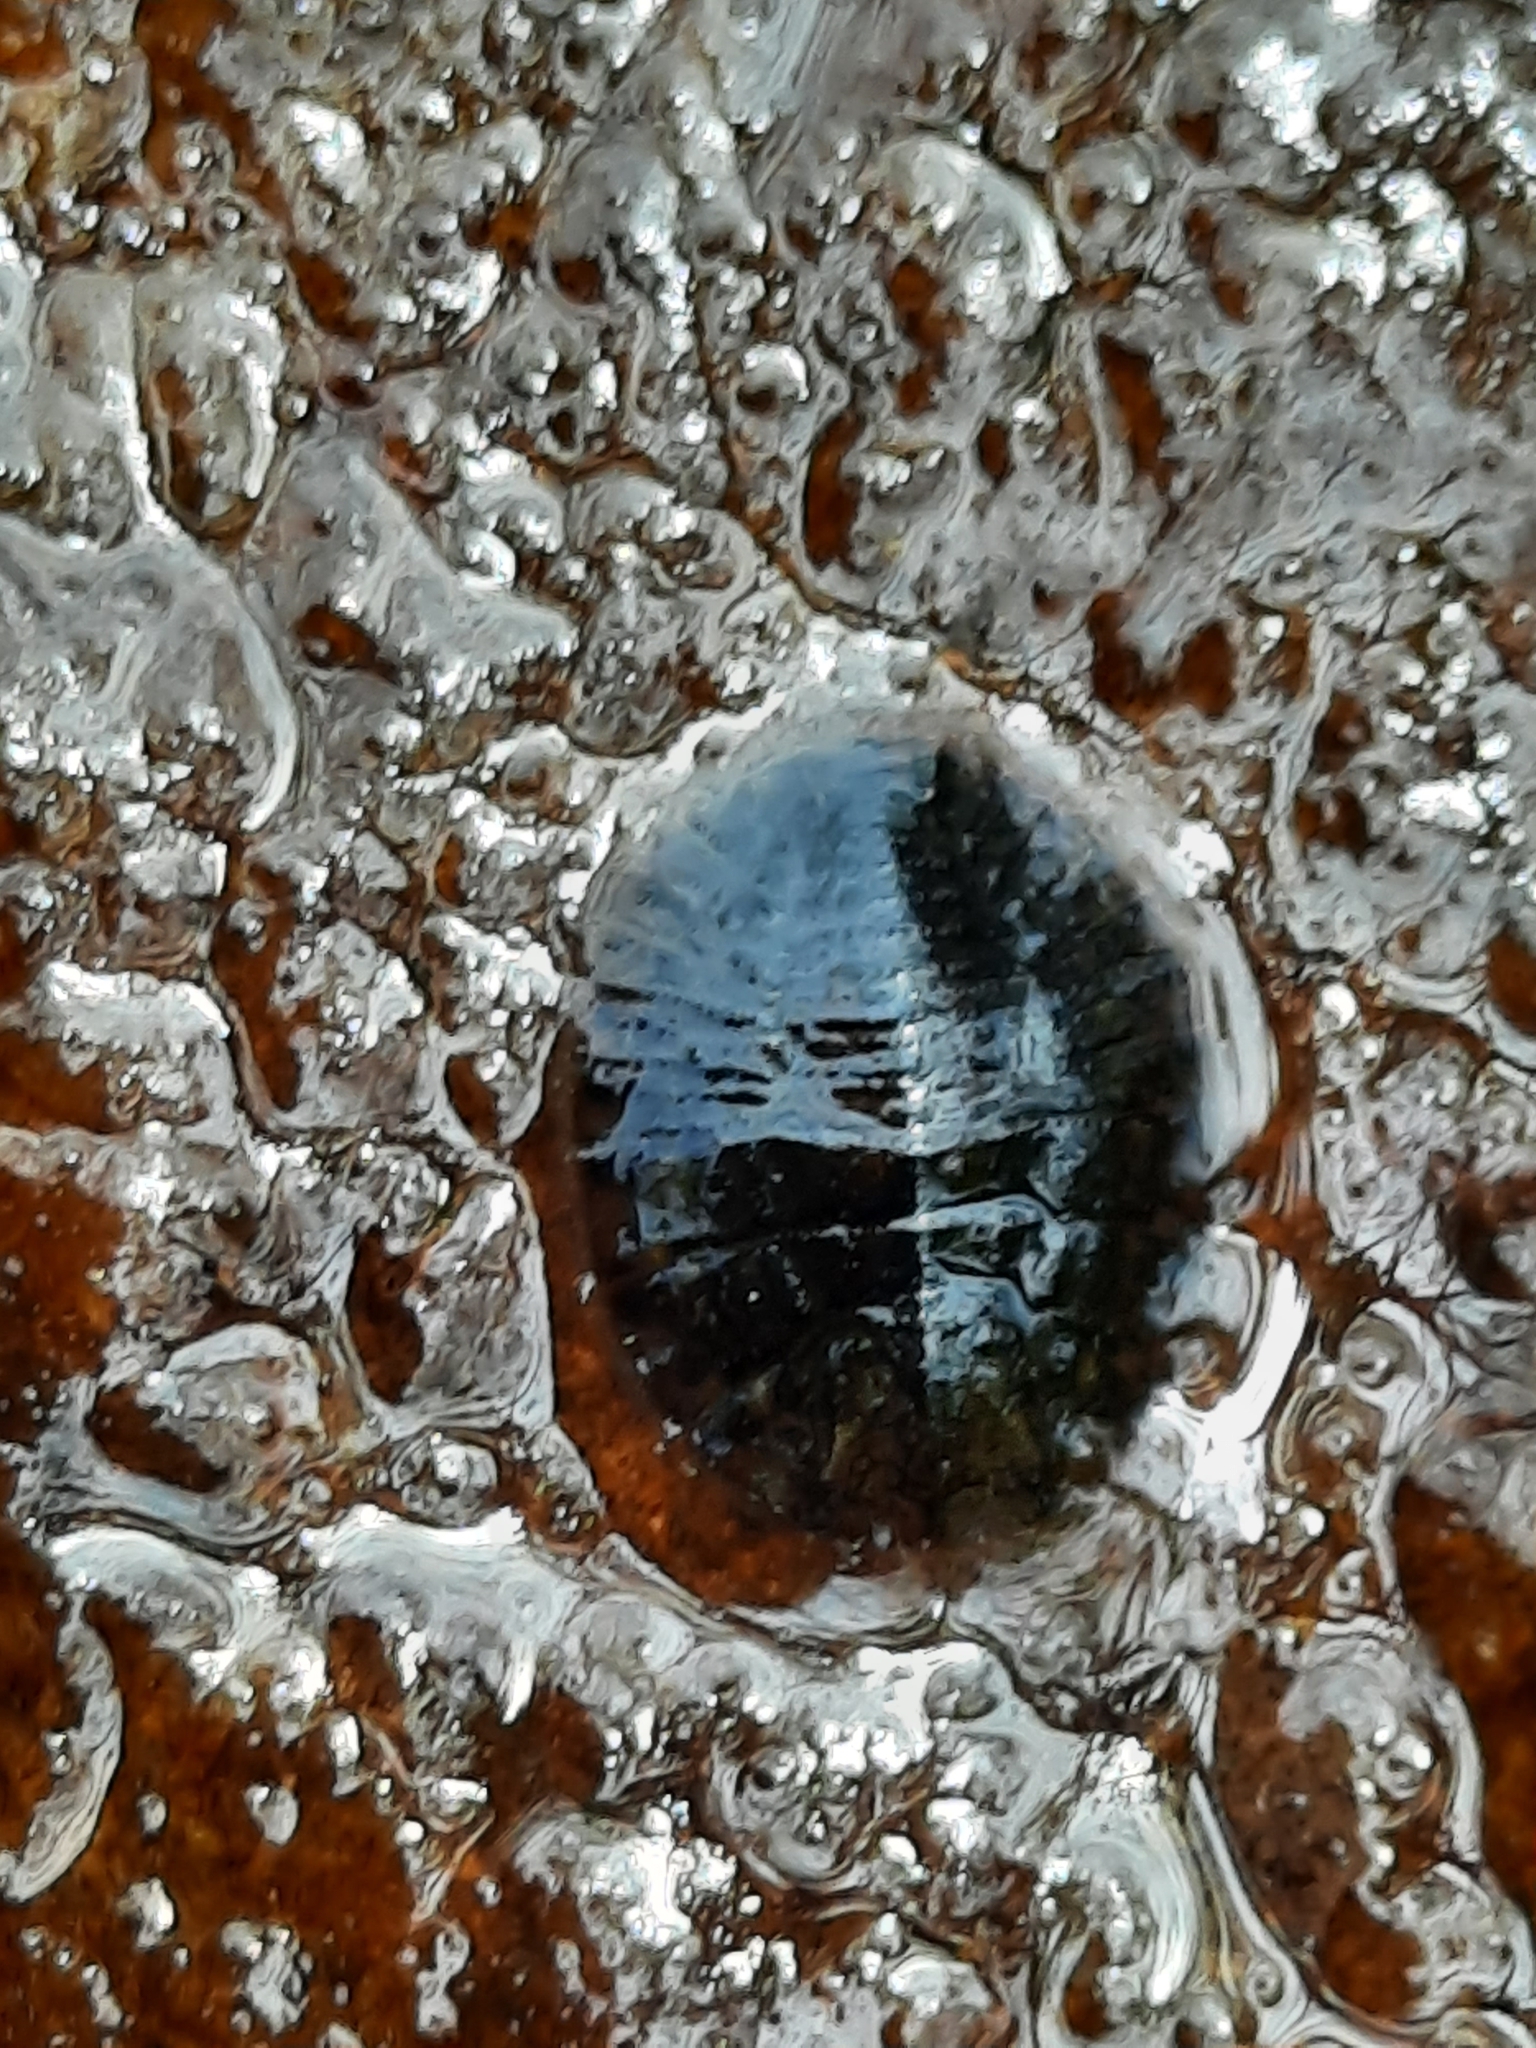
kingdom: Animalia
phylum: Arthropoda
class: Insecta
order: Coleoptera
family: Psephenidae
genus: Psephenus
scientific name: Psephenus herricki
